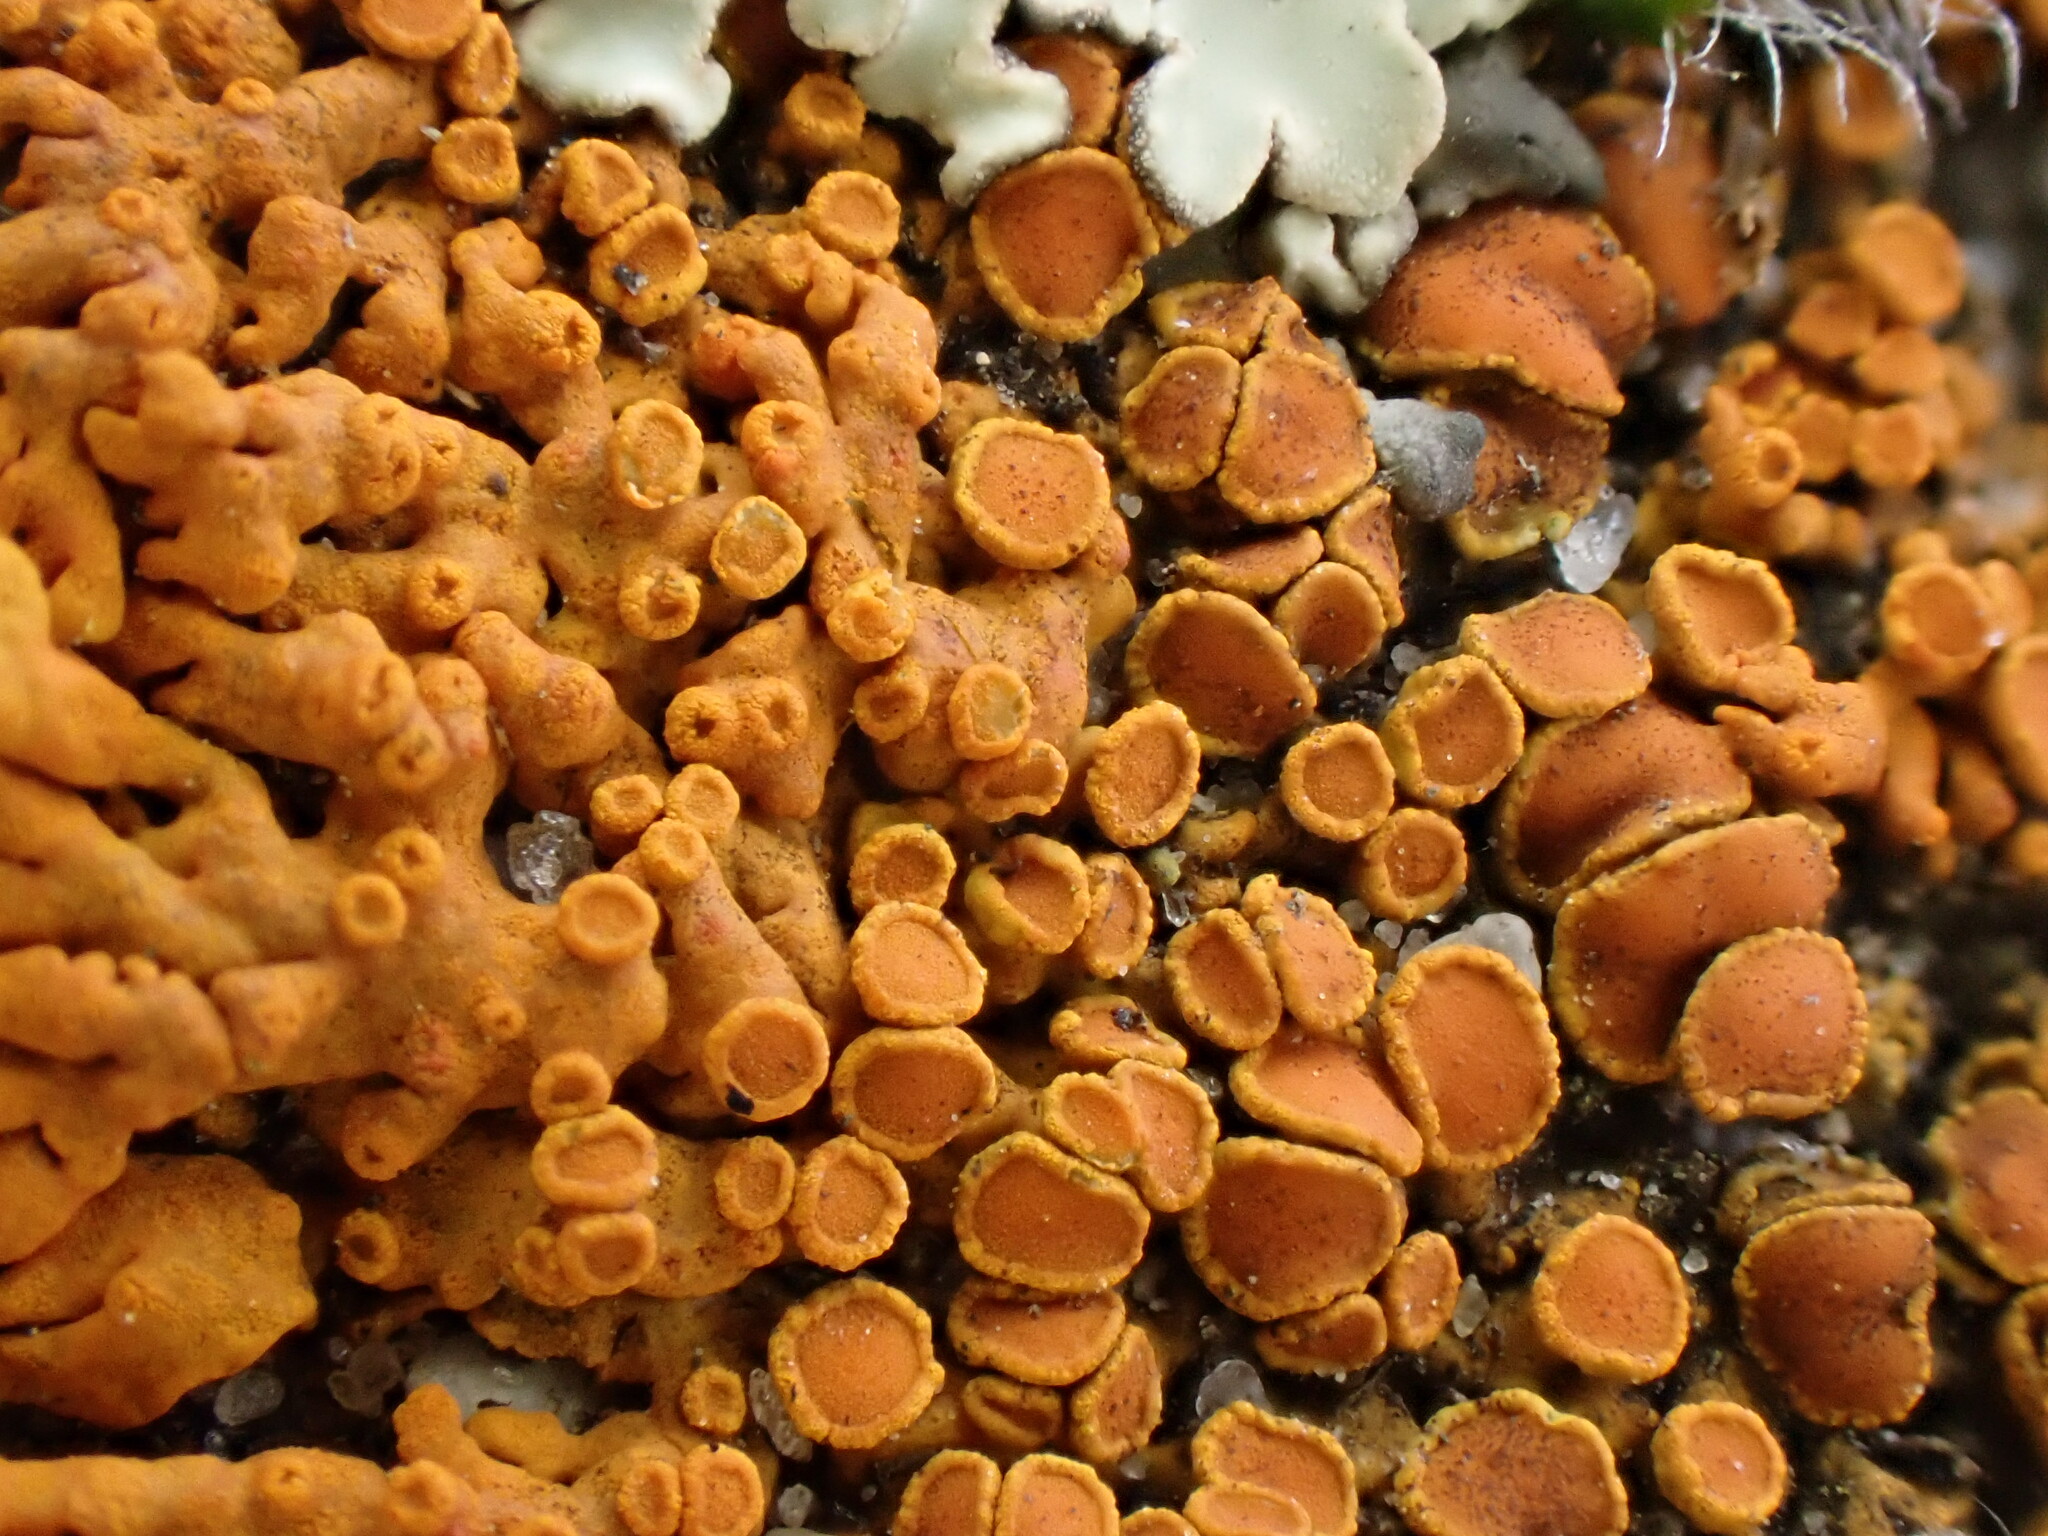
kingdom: Fungi
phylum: Ascomycota
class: Lecanoromycetes
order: Teloschistales
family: Teloschistaceae
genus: Xanthoria
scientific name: Xanthoria elegans
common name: Elegant sunburst lichen
